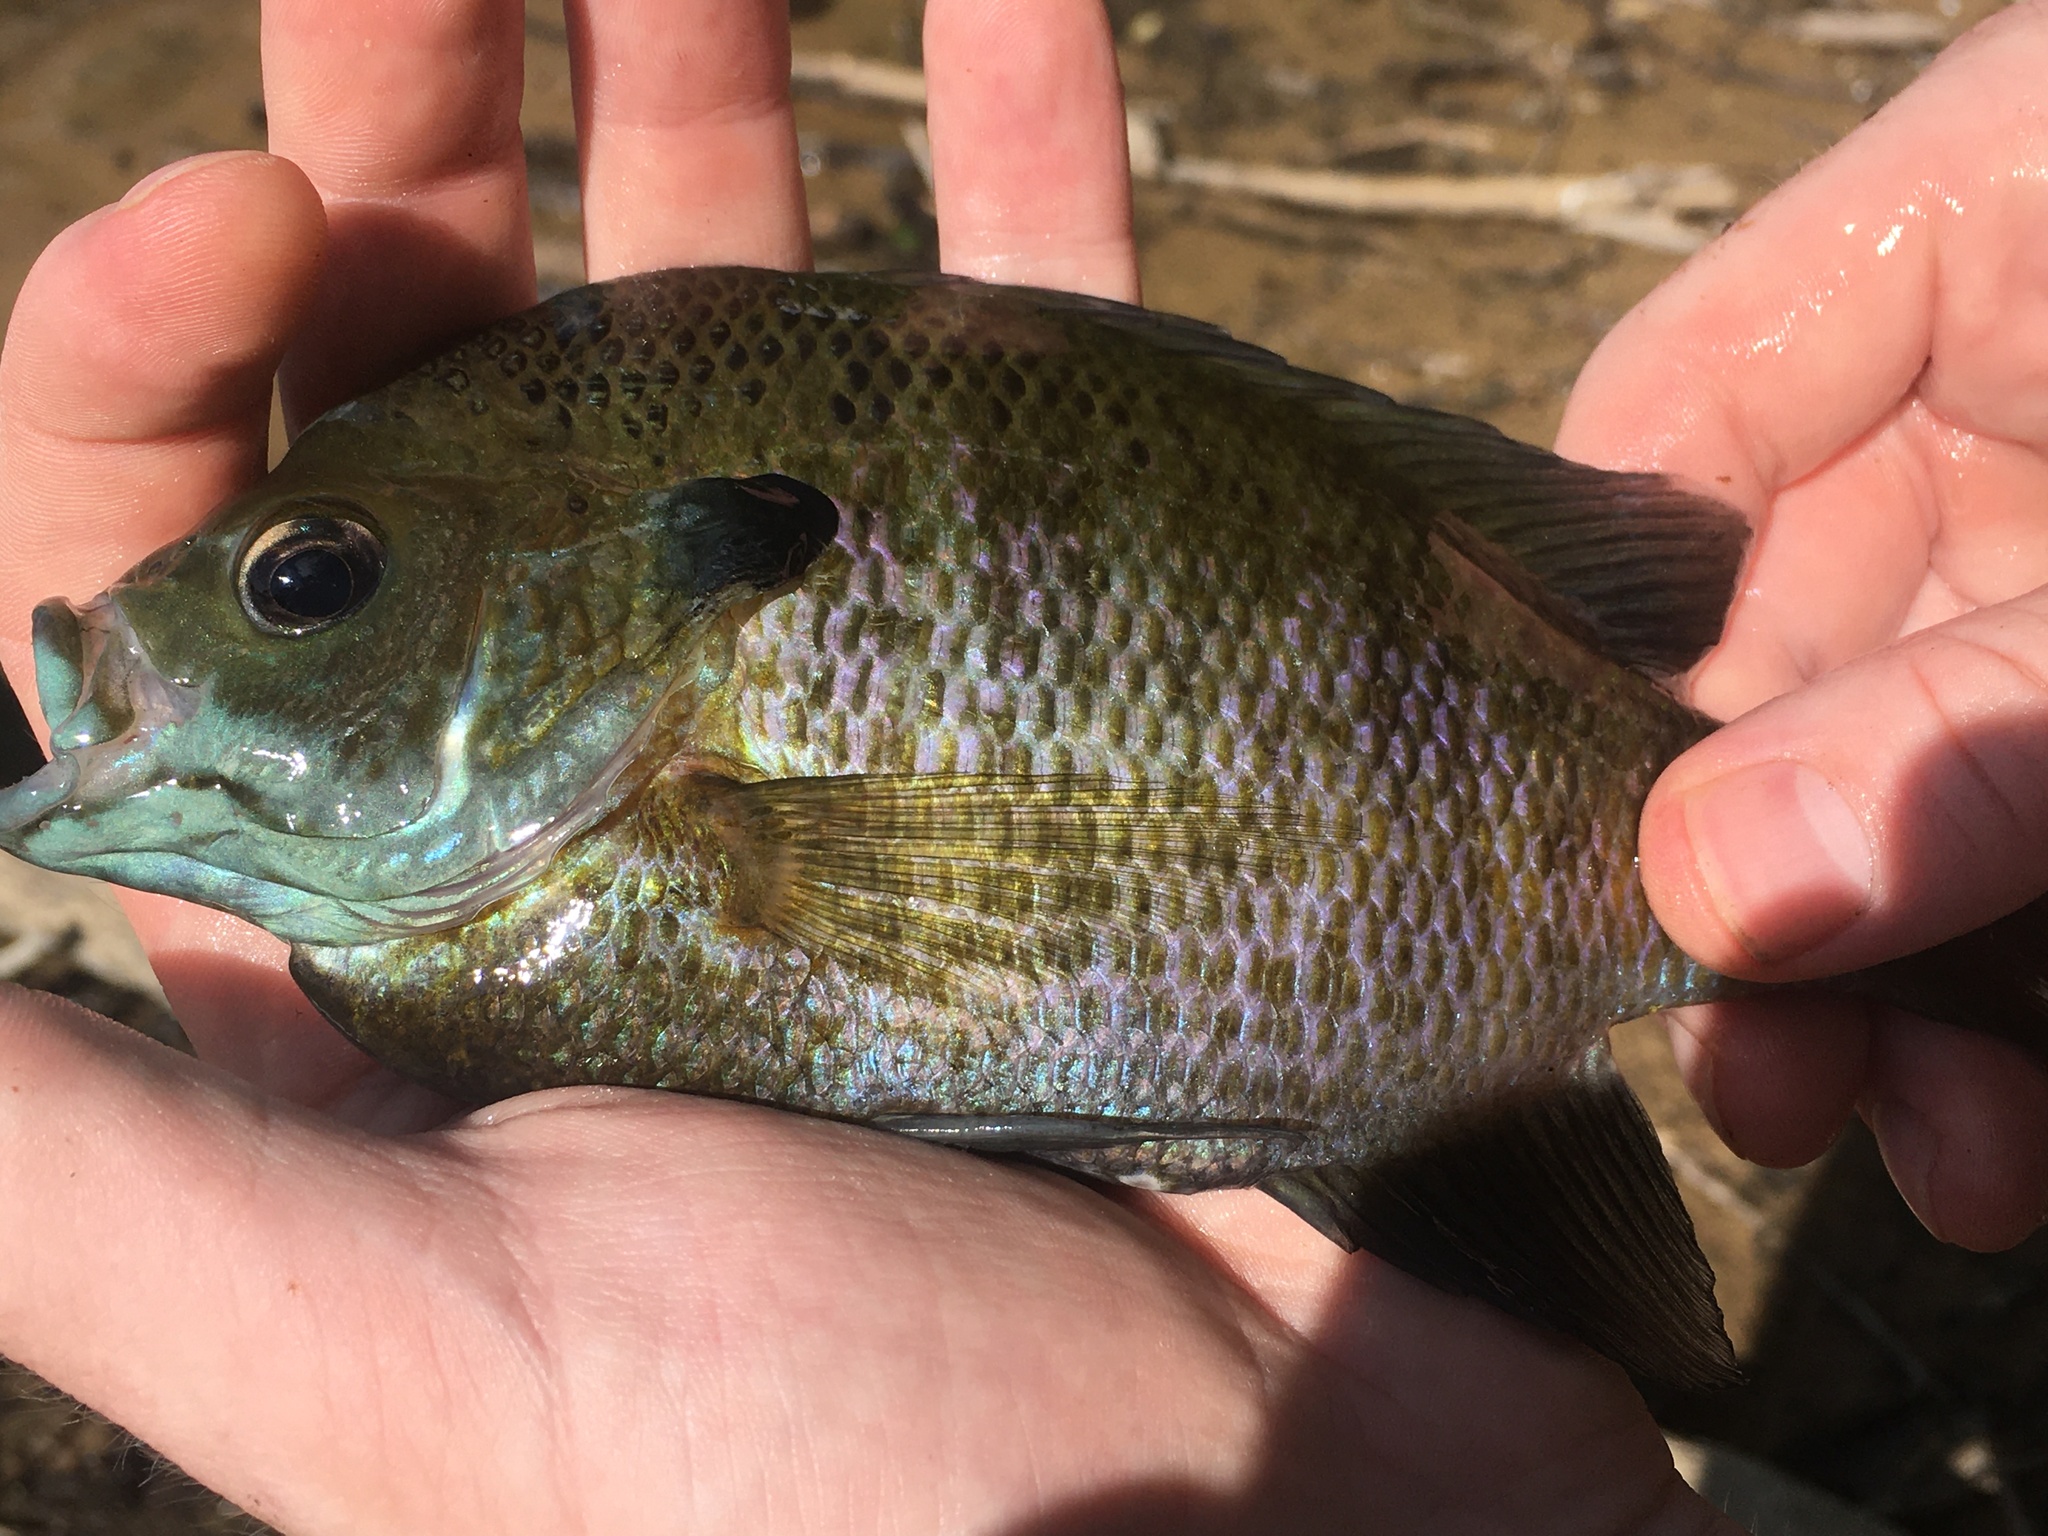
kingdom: Animalia
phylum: Chordata
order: Perciformes
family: Centrarchidae
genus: Lepomis
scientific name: Lepomis macrochirus
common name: Bluegill
